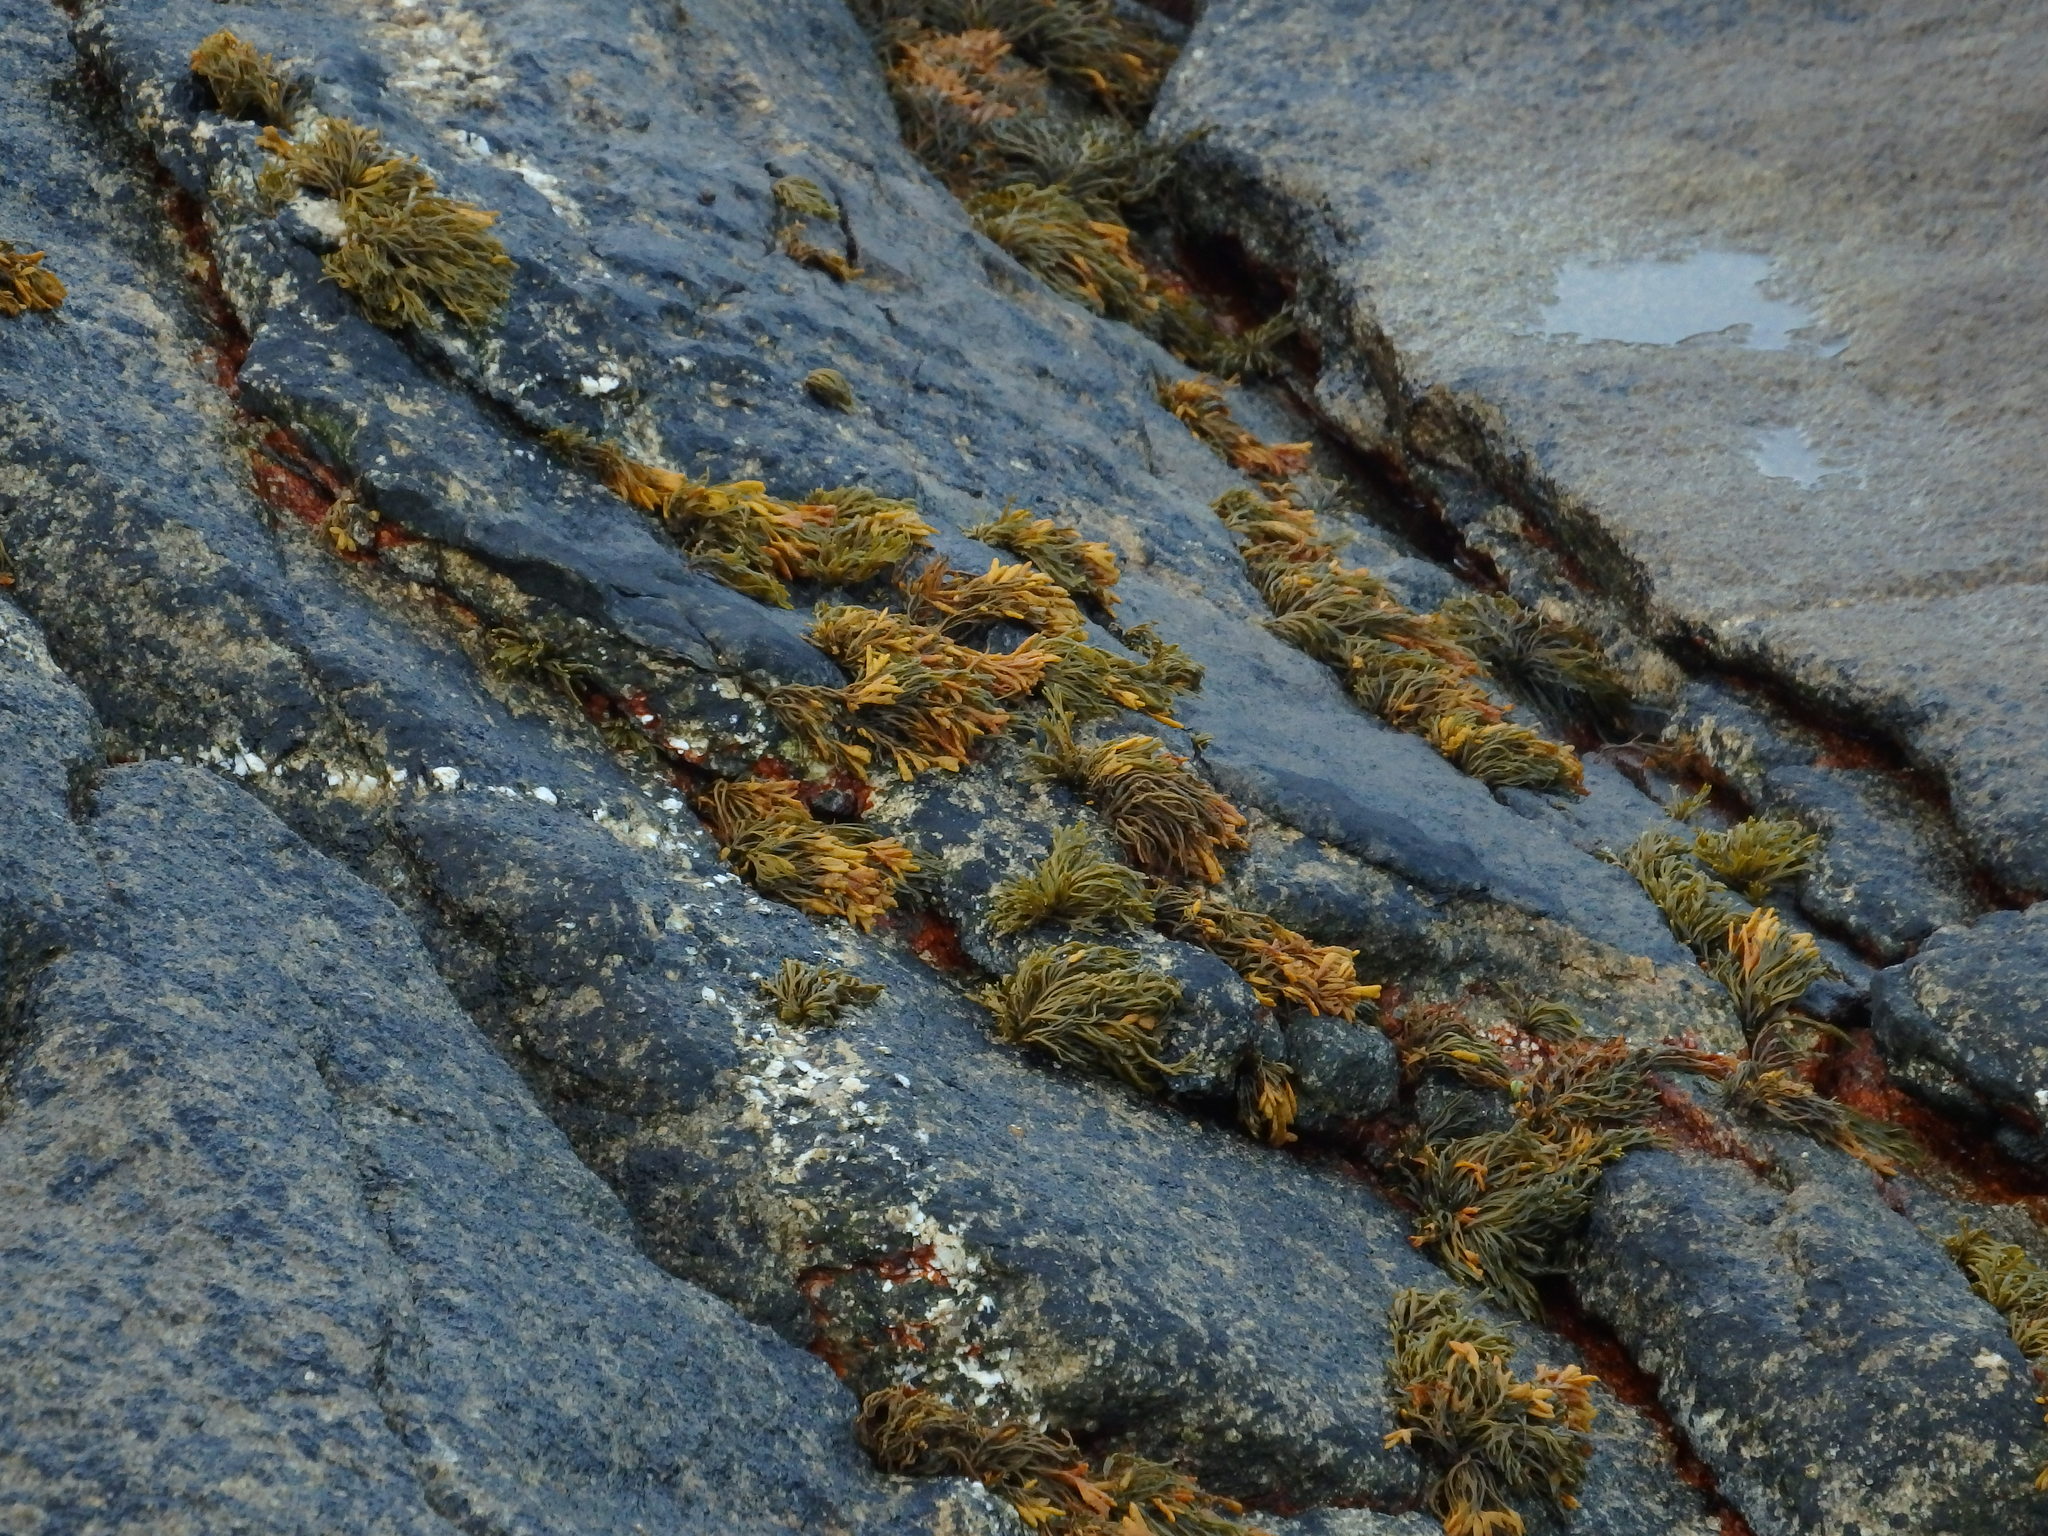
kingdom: Chromista
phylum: Ochrophyta
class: Phaeophyceae
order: Fucales
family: Fucaceae
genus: Pelvetia
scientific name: Pelvetia canaliculata
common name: Channelled wrack
